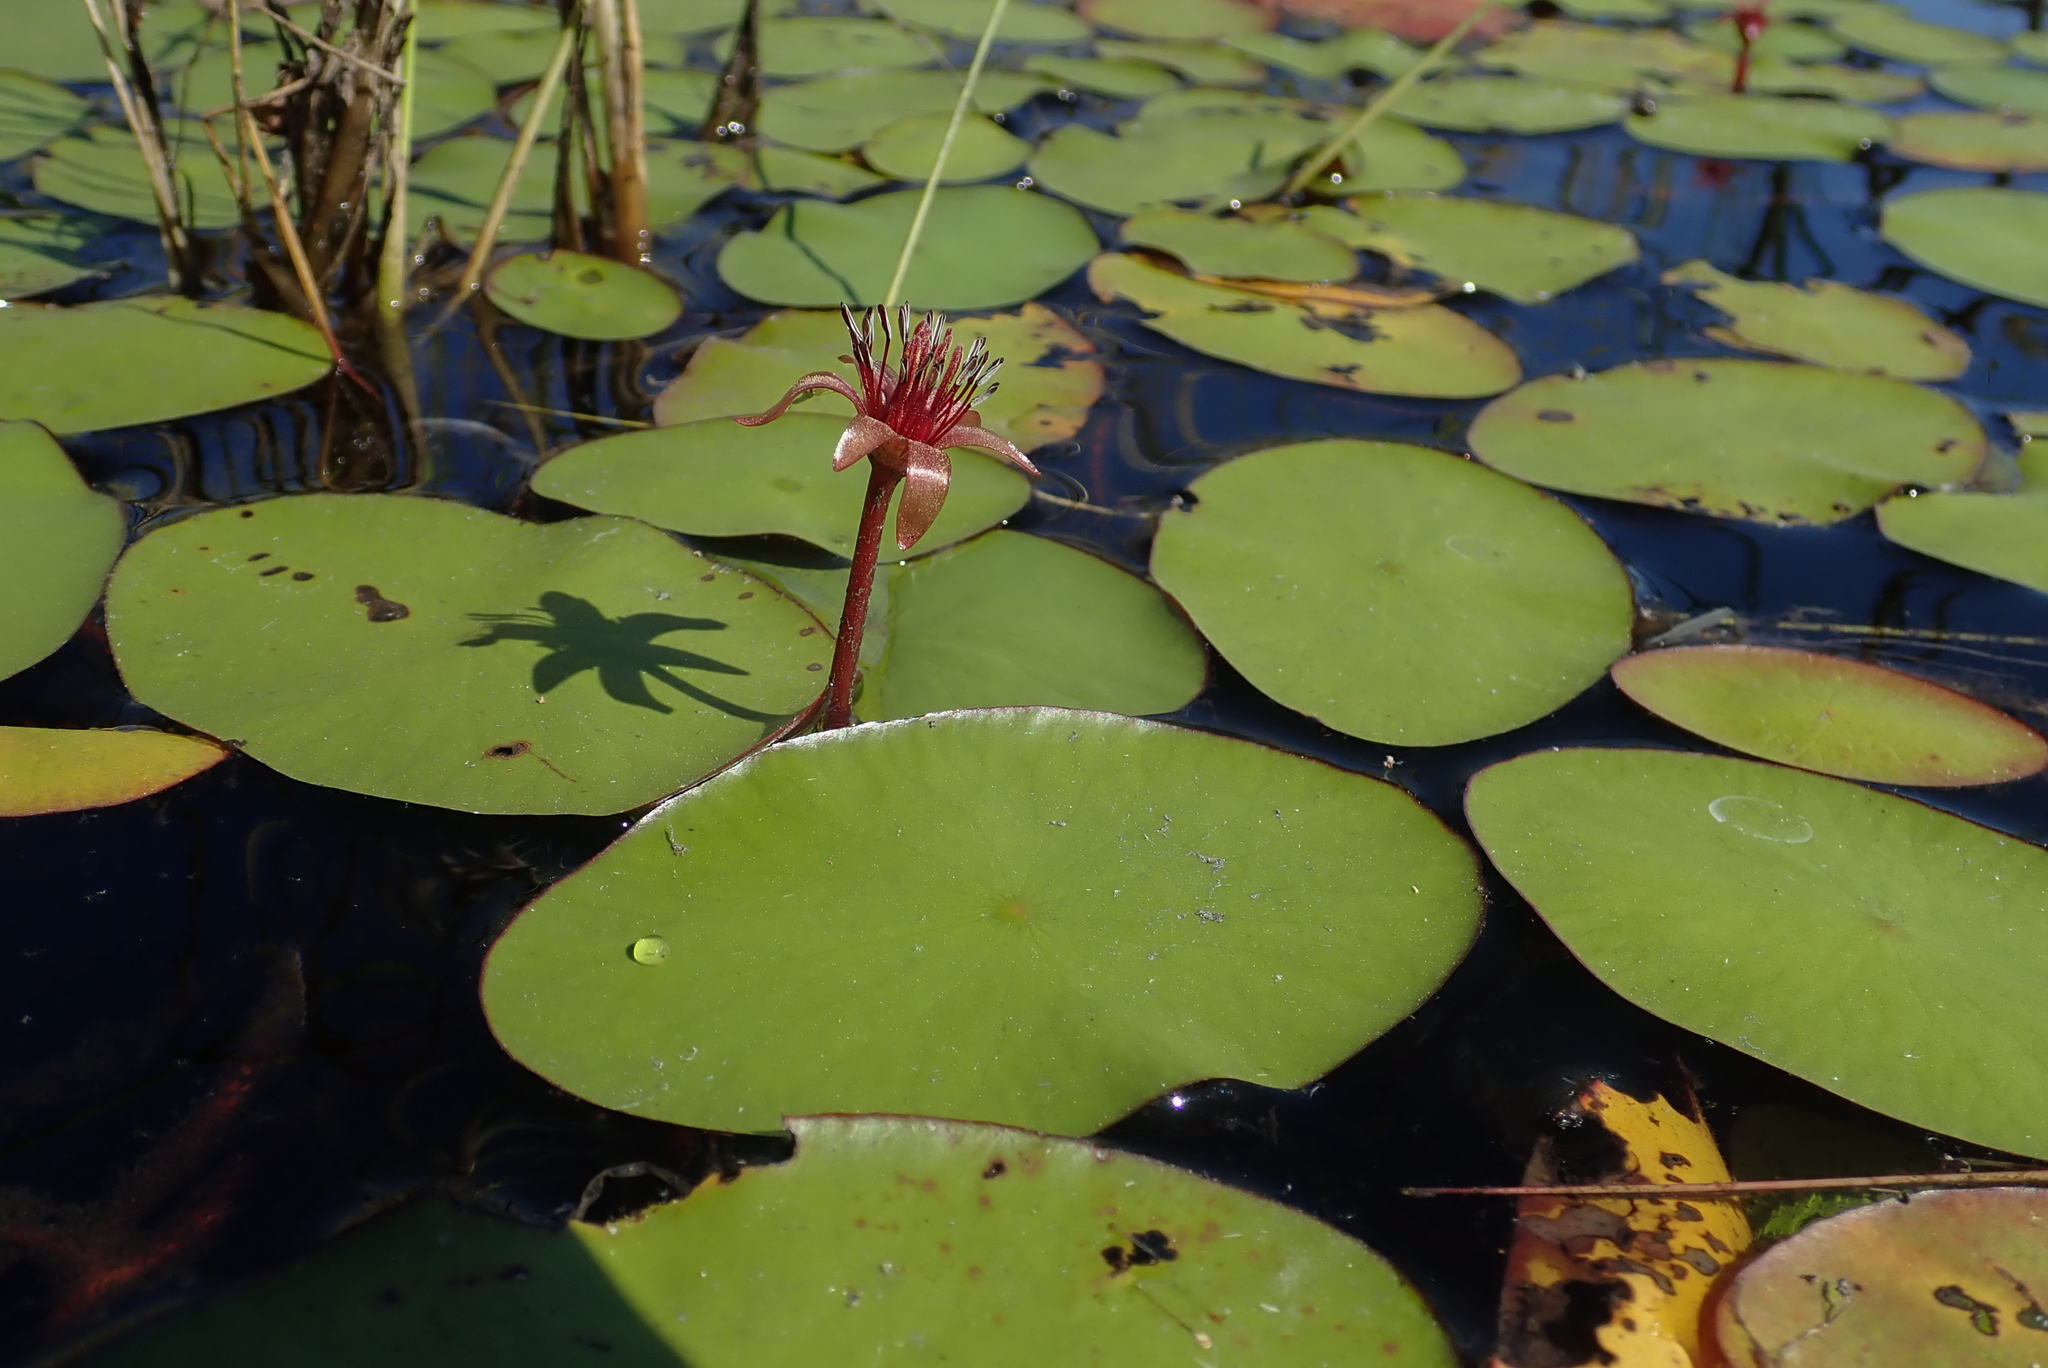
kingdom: Plantae
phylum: Tracheophyta
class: Magnoliopsida
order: Nymphaeales
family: Cabombaceae
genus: Brasenia
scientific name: Brasenia schreberi
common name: Water-shield
